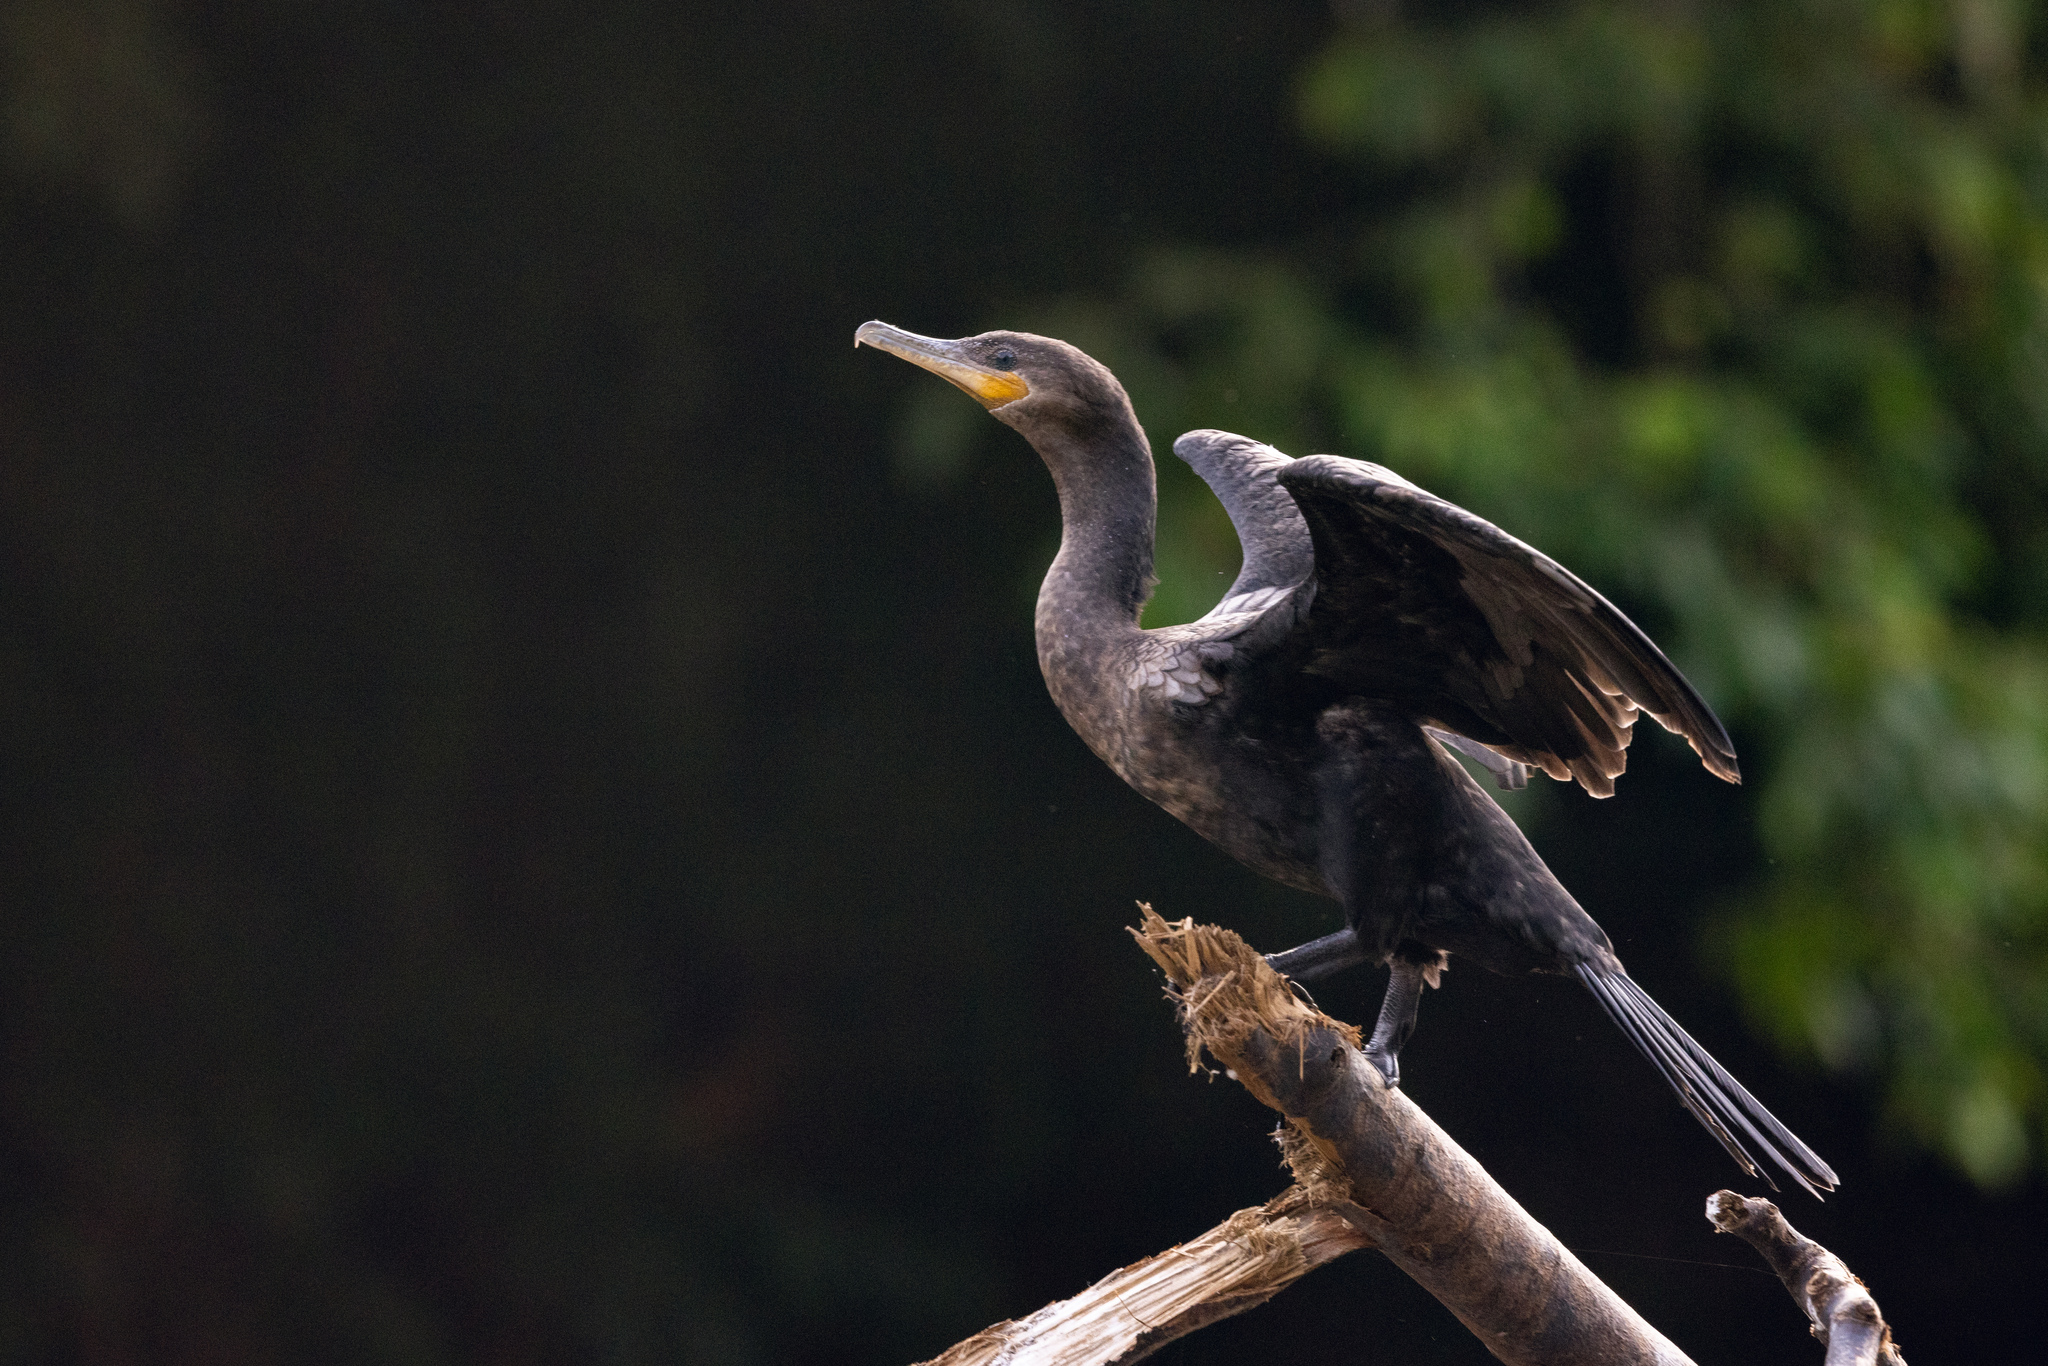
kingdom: Animalia
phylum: Chordata
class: Aves
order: Suliformes
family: Phalacrocoracidae
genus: Phalacrocorax
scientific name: Phalacrocorax brasilianus
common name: Neotropic cormorant
